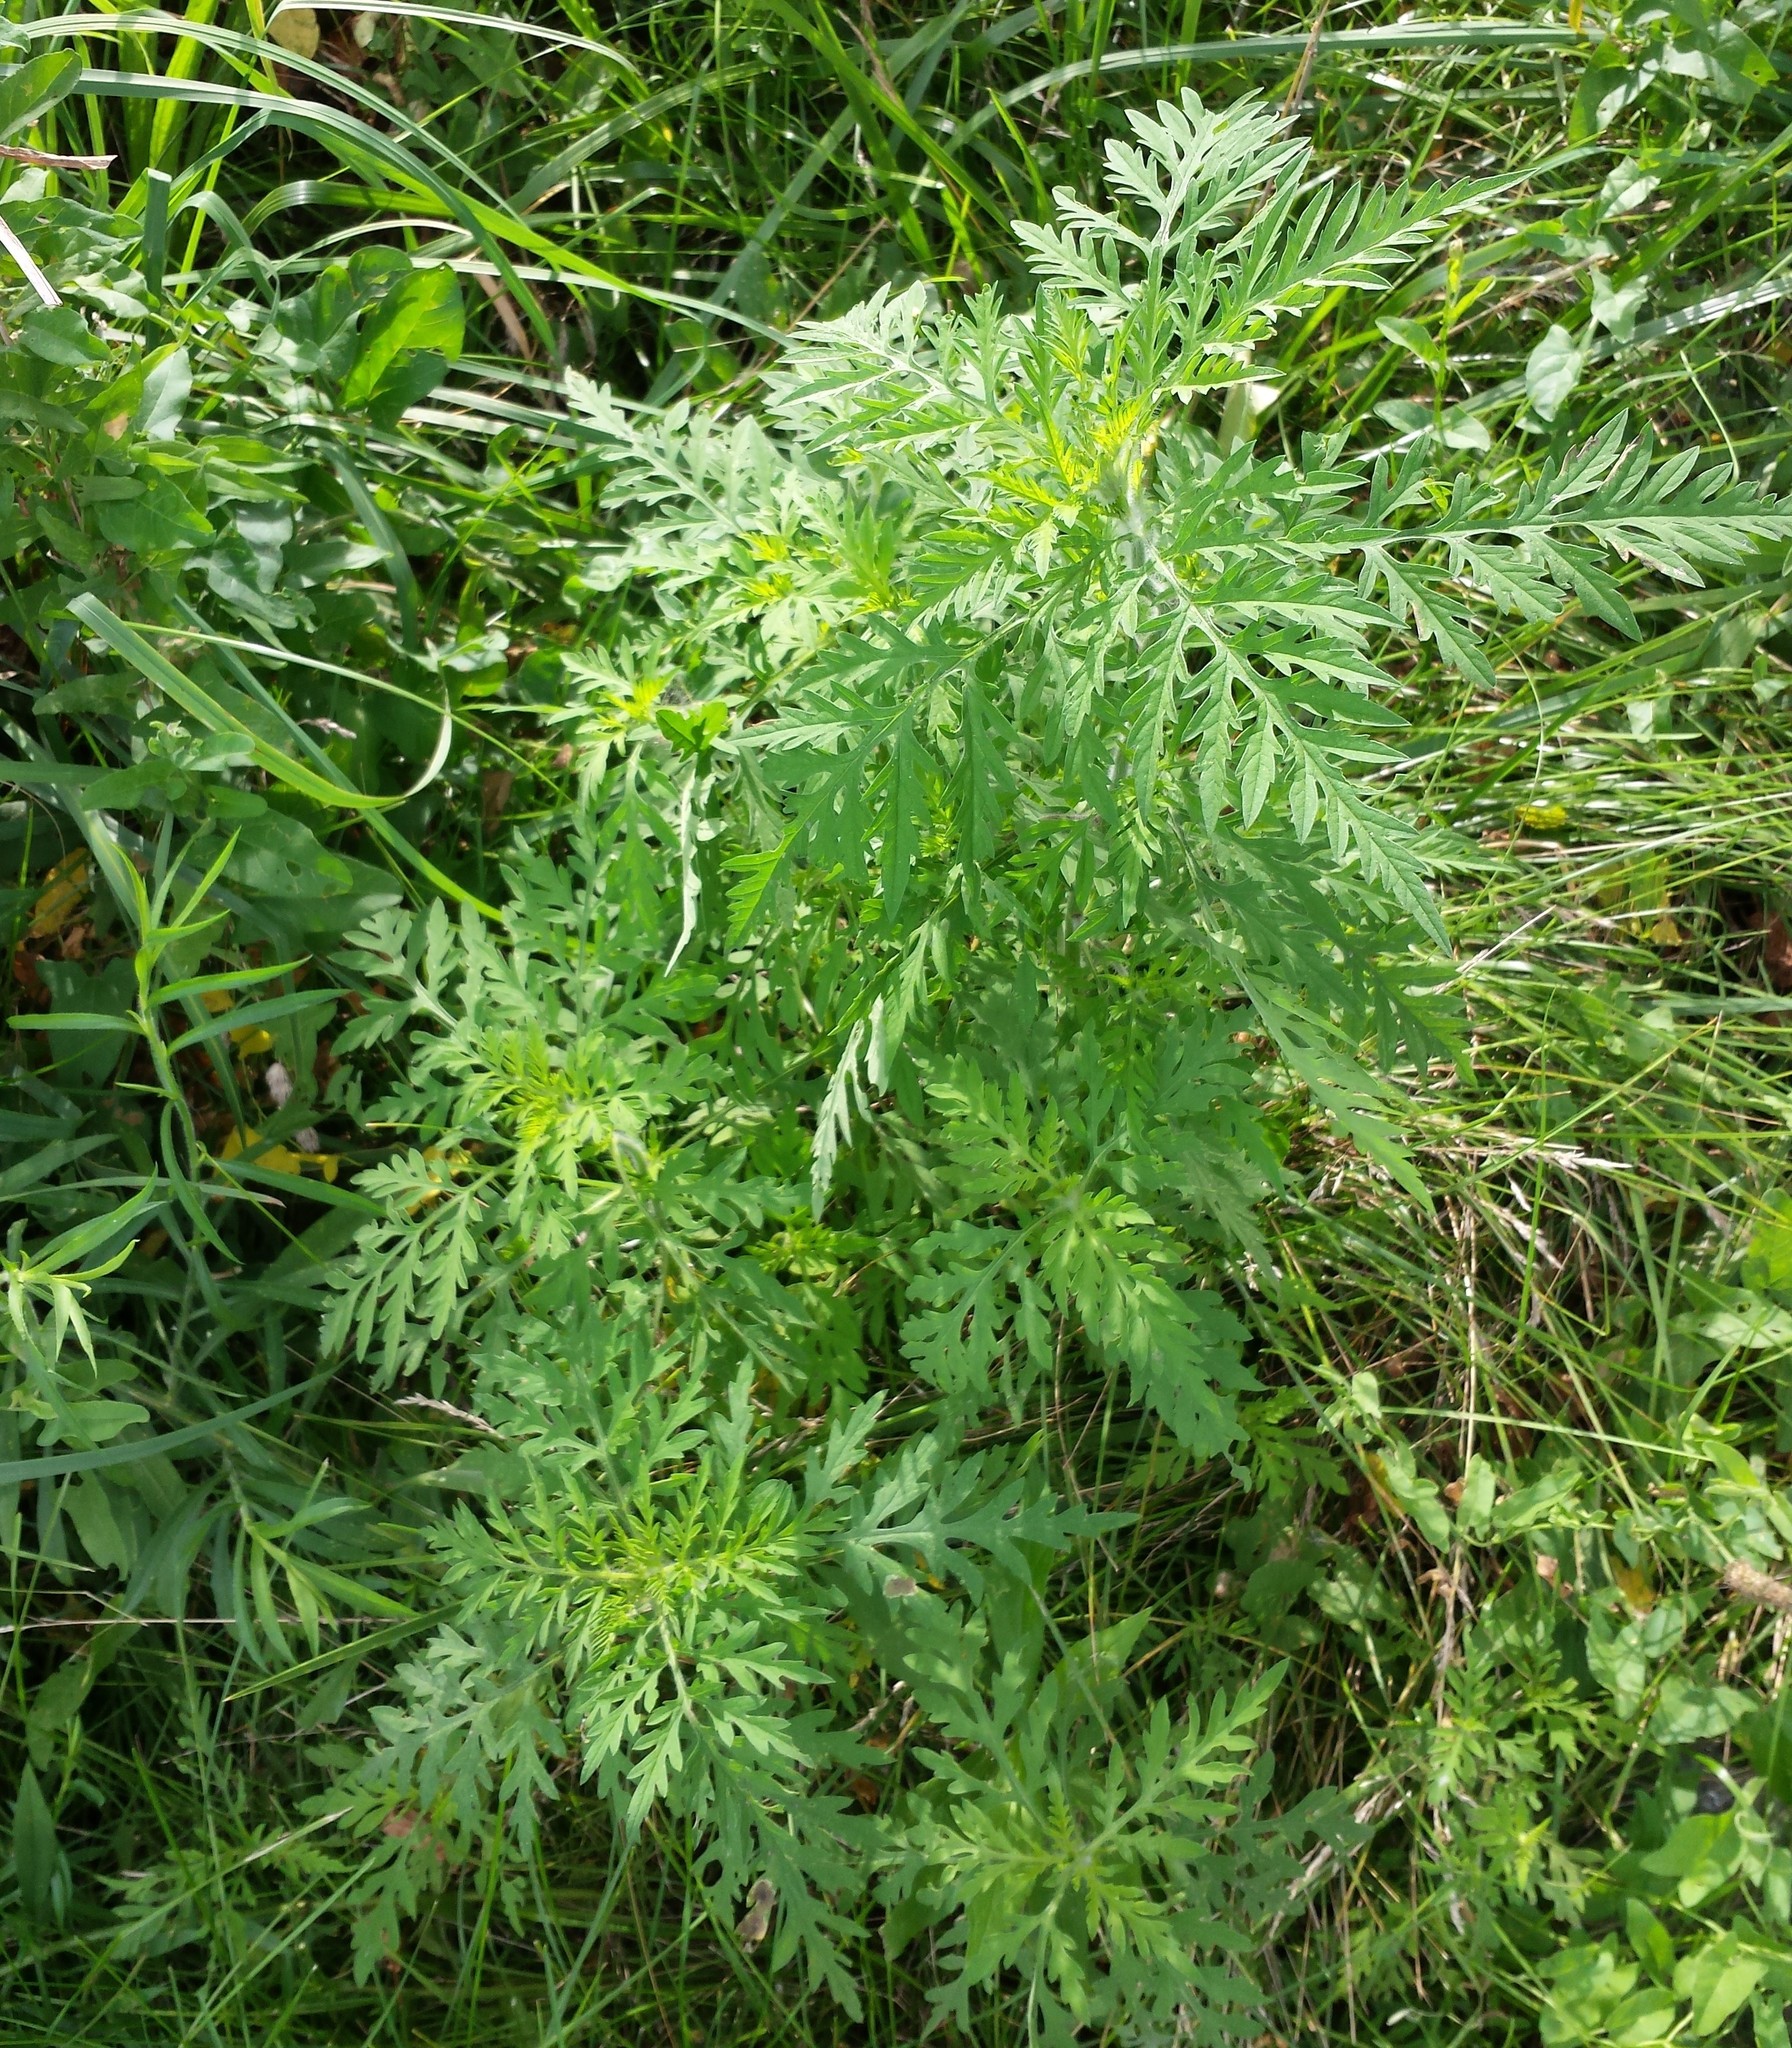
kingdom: Plantae
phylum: Tracheophyta
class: Magnoliopsida
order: Asterales
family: Asteraceae
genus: Ambrosia
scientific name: Ambrosia artemisiifolia
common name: Annual ragweed
